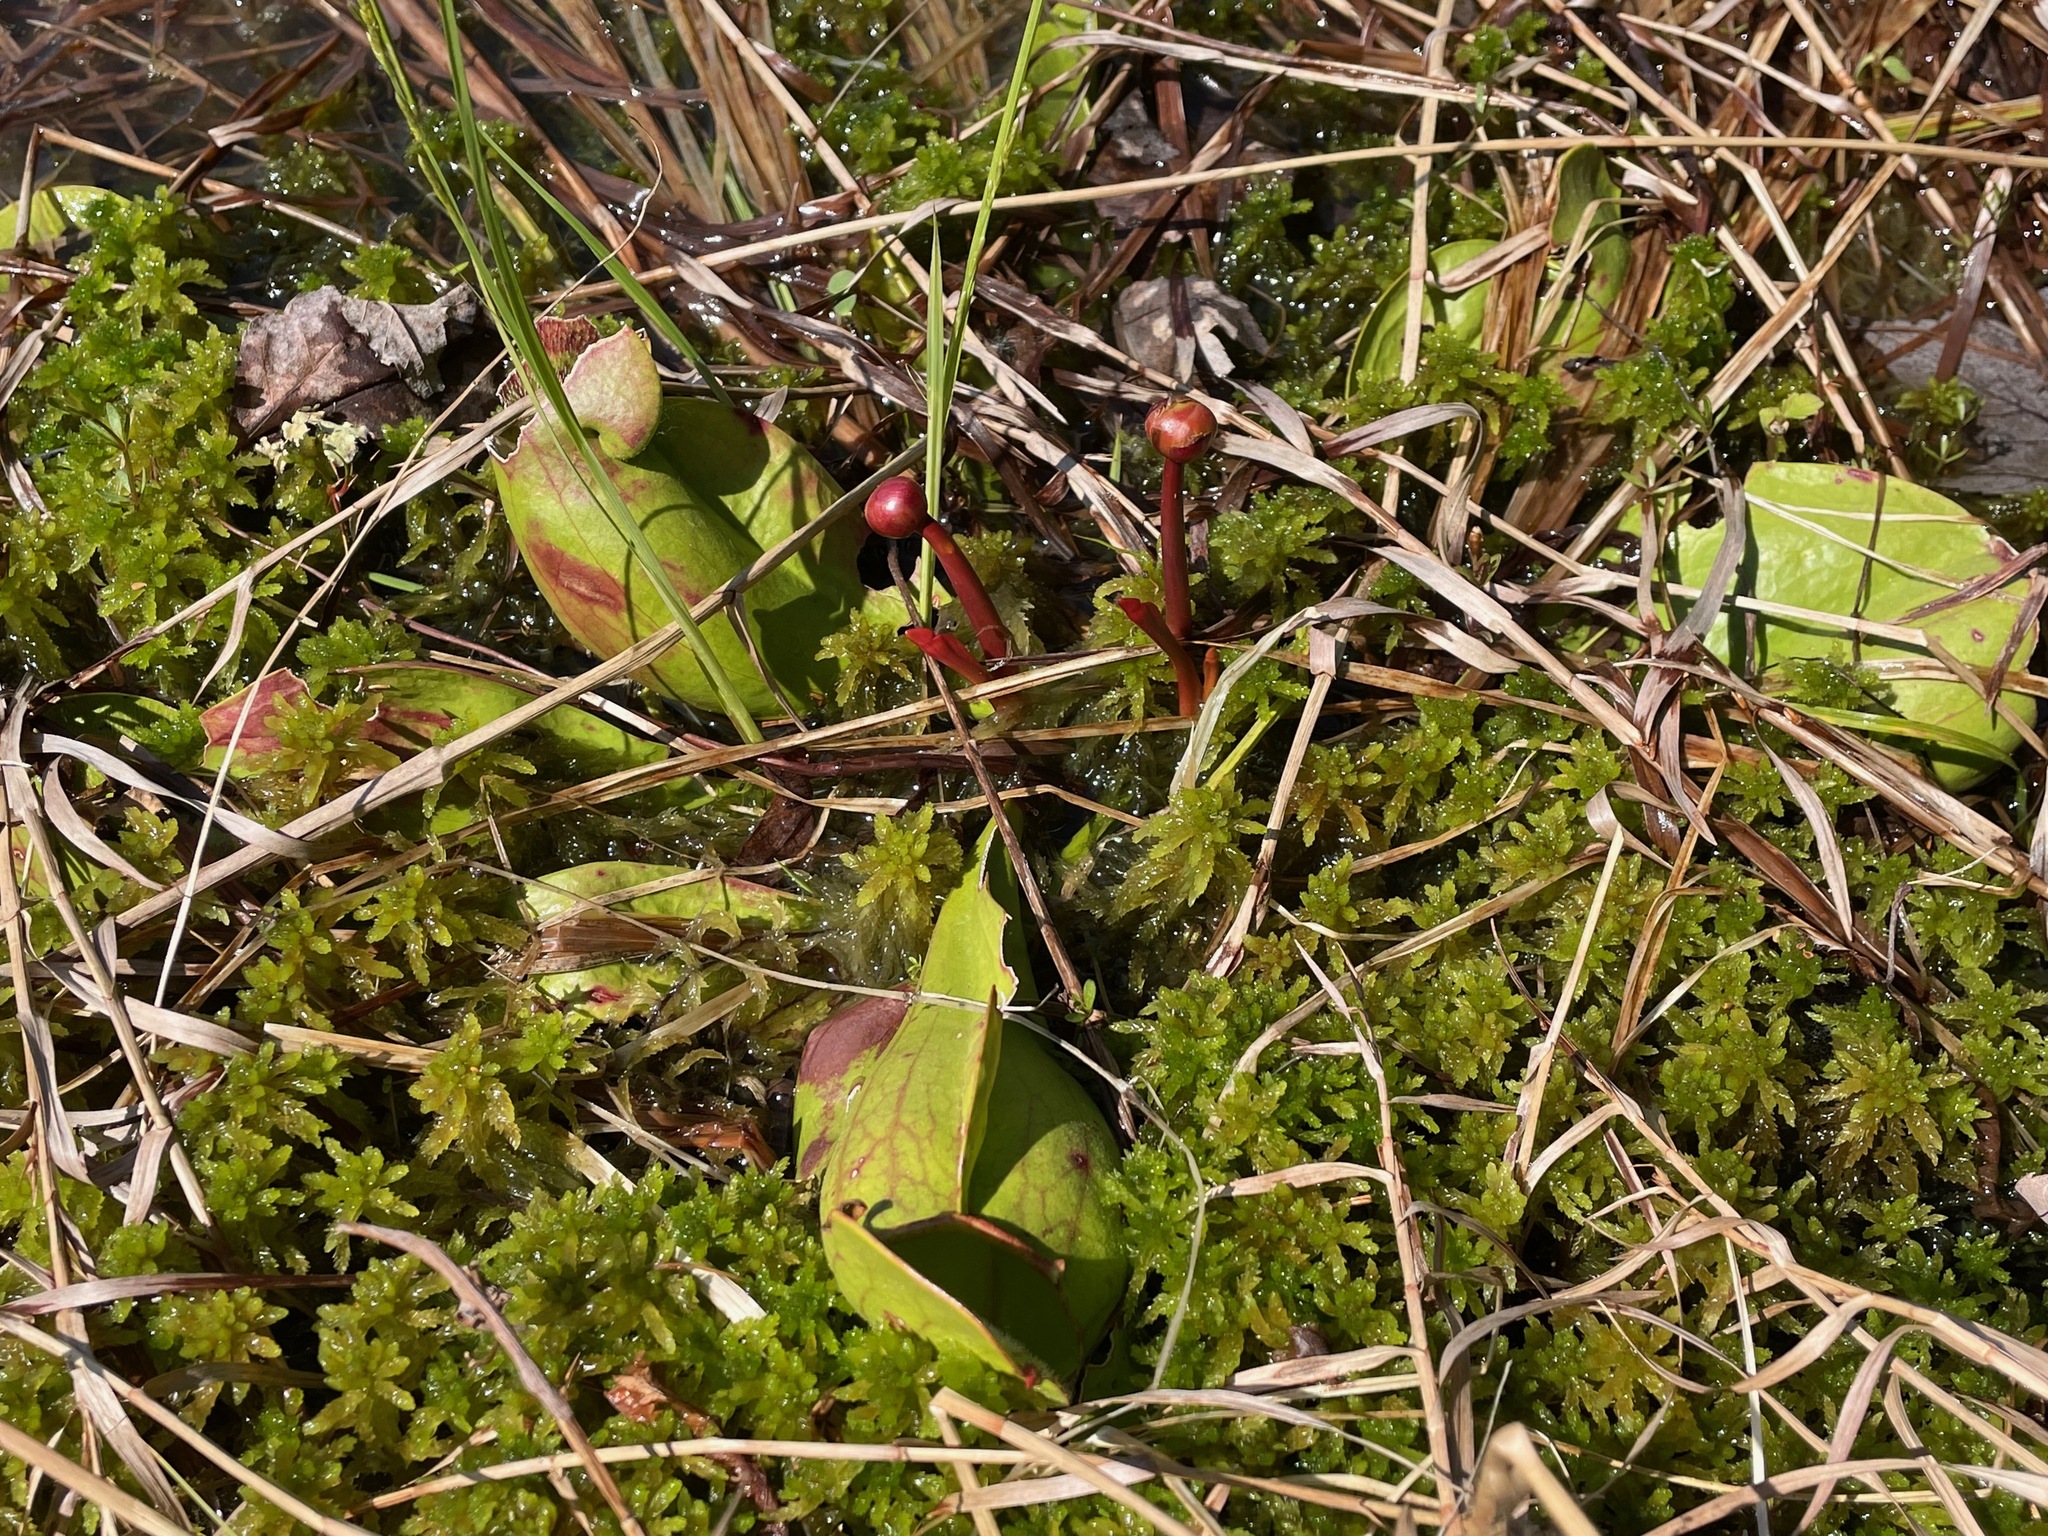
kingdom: Plantae
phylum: Tracheophyta
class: Magnoliopsida
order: Ericales
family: Sarraceniaceae
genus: Sarracenia
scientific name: Sarracenia purpurea
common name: Pitcherplant
